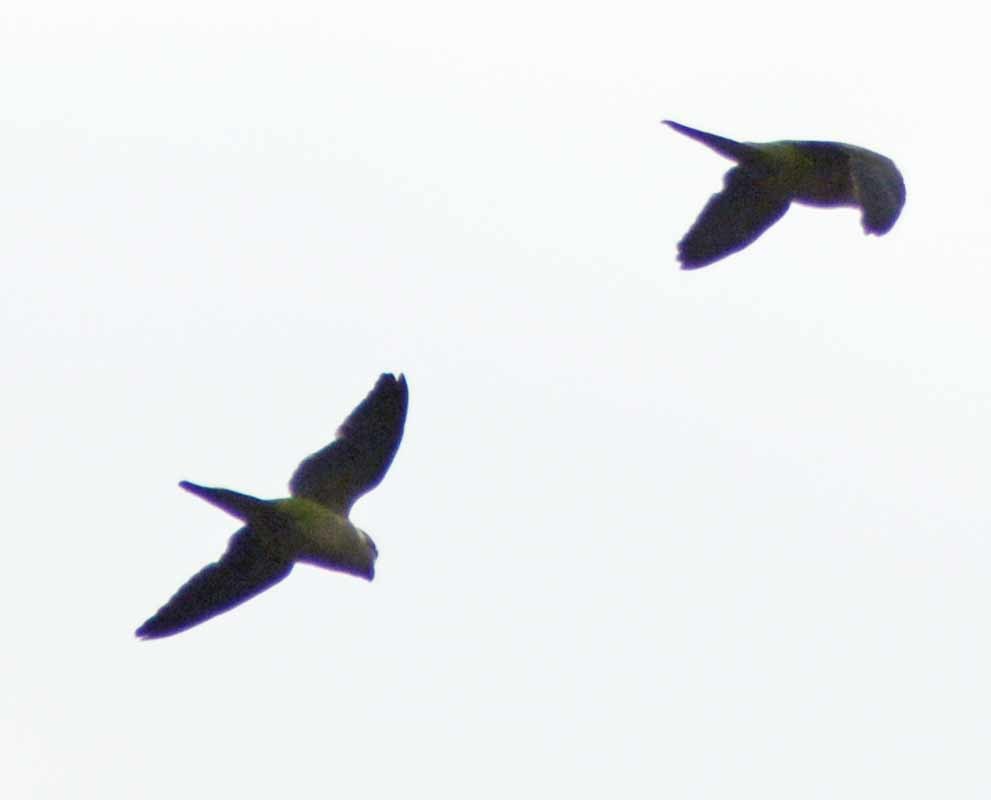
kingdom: Animalia
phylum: Chordata
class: Aves
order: Psittaciformes
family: Psittacidae
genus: Myiopsitta
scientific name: Myiopsitta monachus
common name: Monk parakeet
